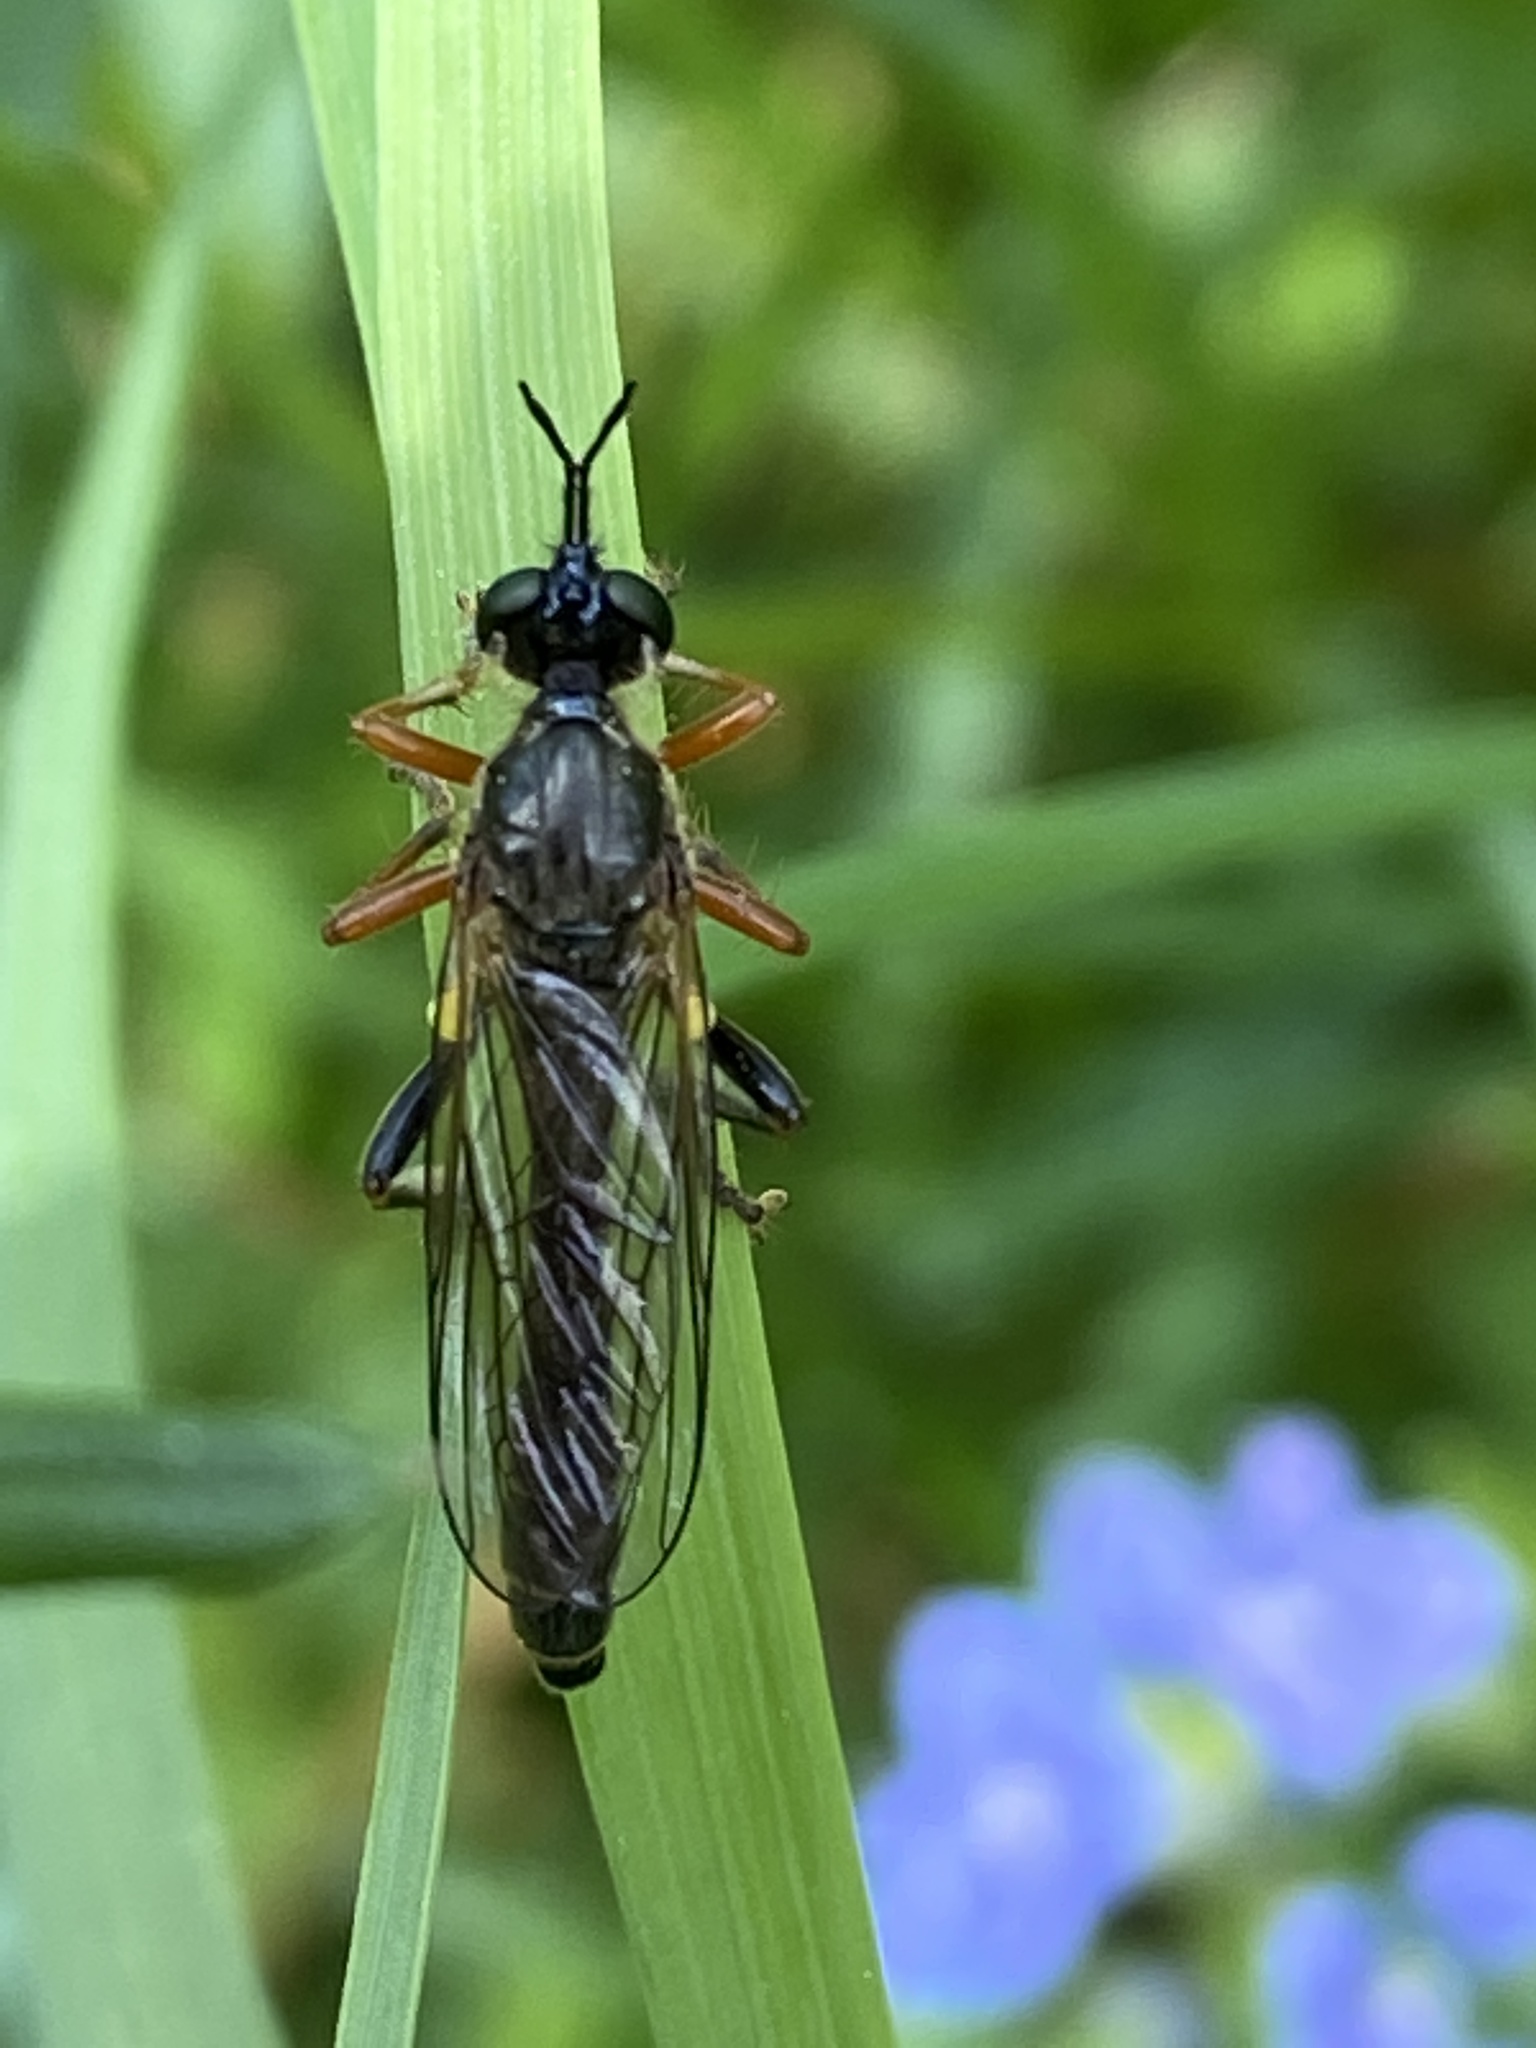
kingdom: Animalia
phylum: Arthropoda
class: Insecta
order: Diptera
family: Asilidae
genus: Dioctria
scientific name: Dioctria rufipes
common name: Common red-legged robberfly
